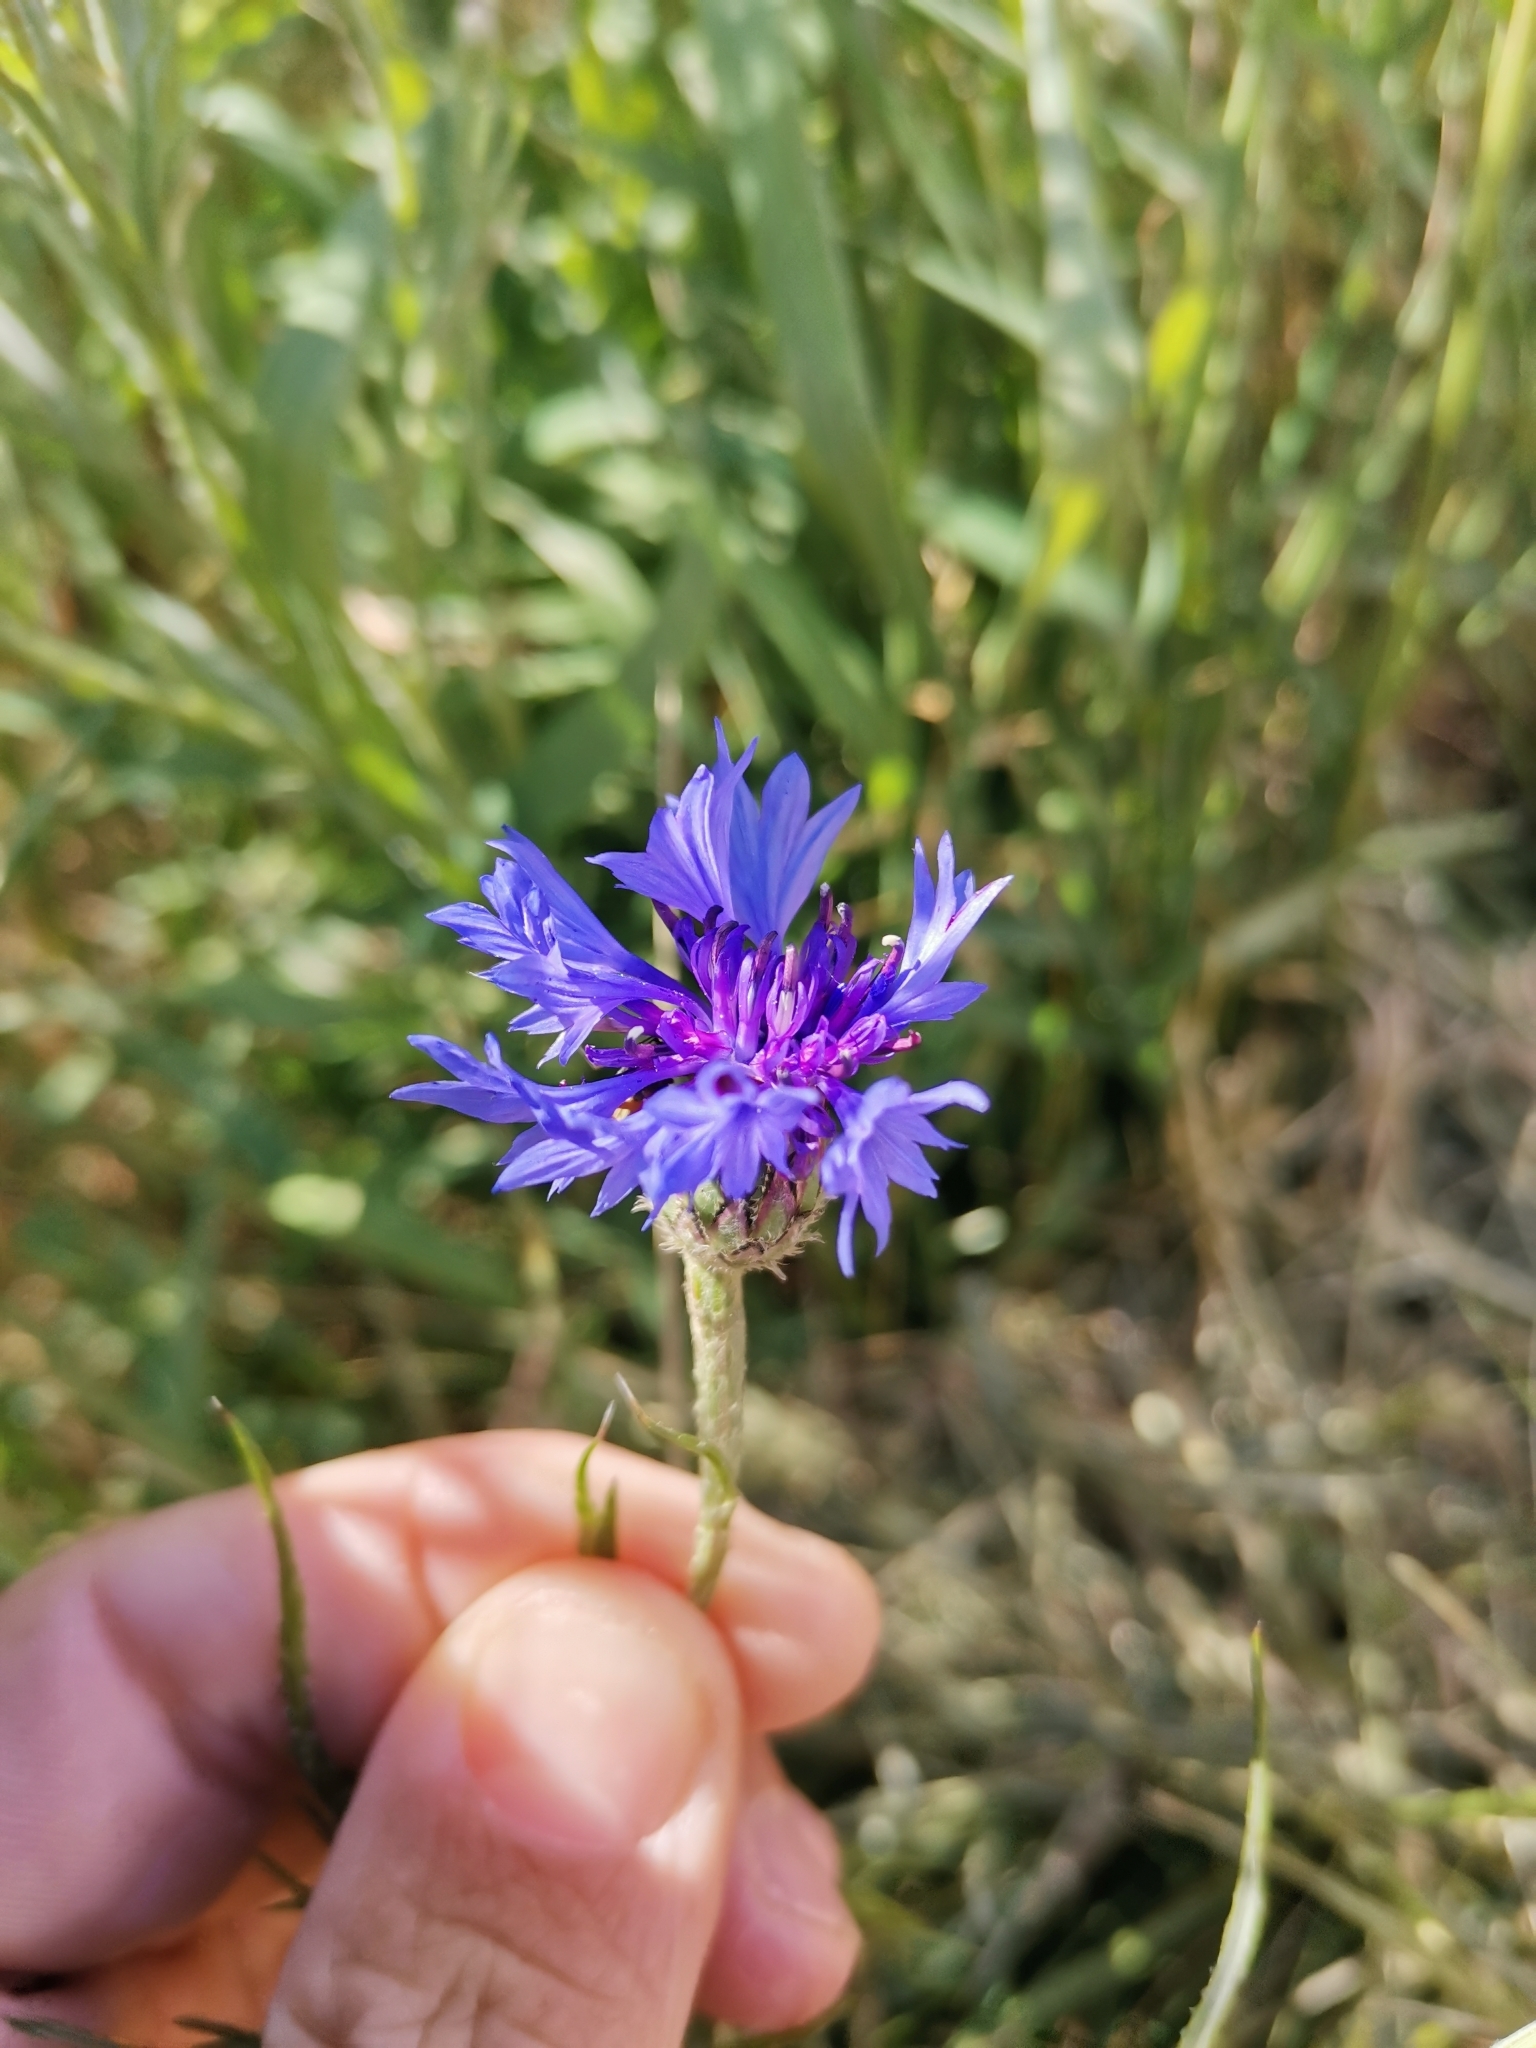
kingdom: Plantae
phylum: Tracheophyta
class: Magnoliopsida
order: Asterales
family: Asteraceae
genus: Centaurea
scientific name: Centaurea cyanus
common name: Cornflower
